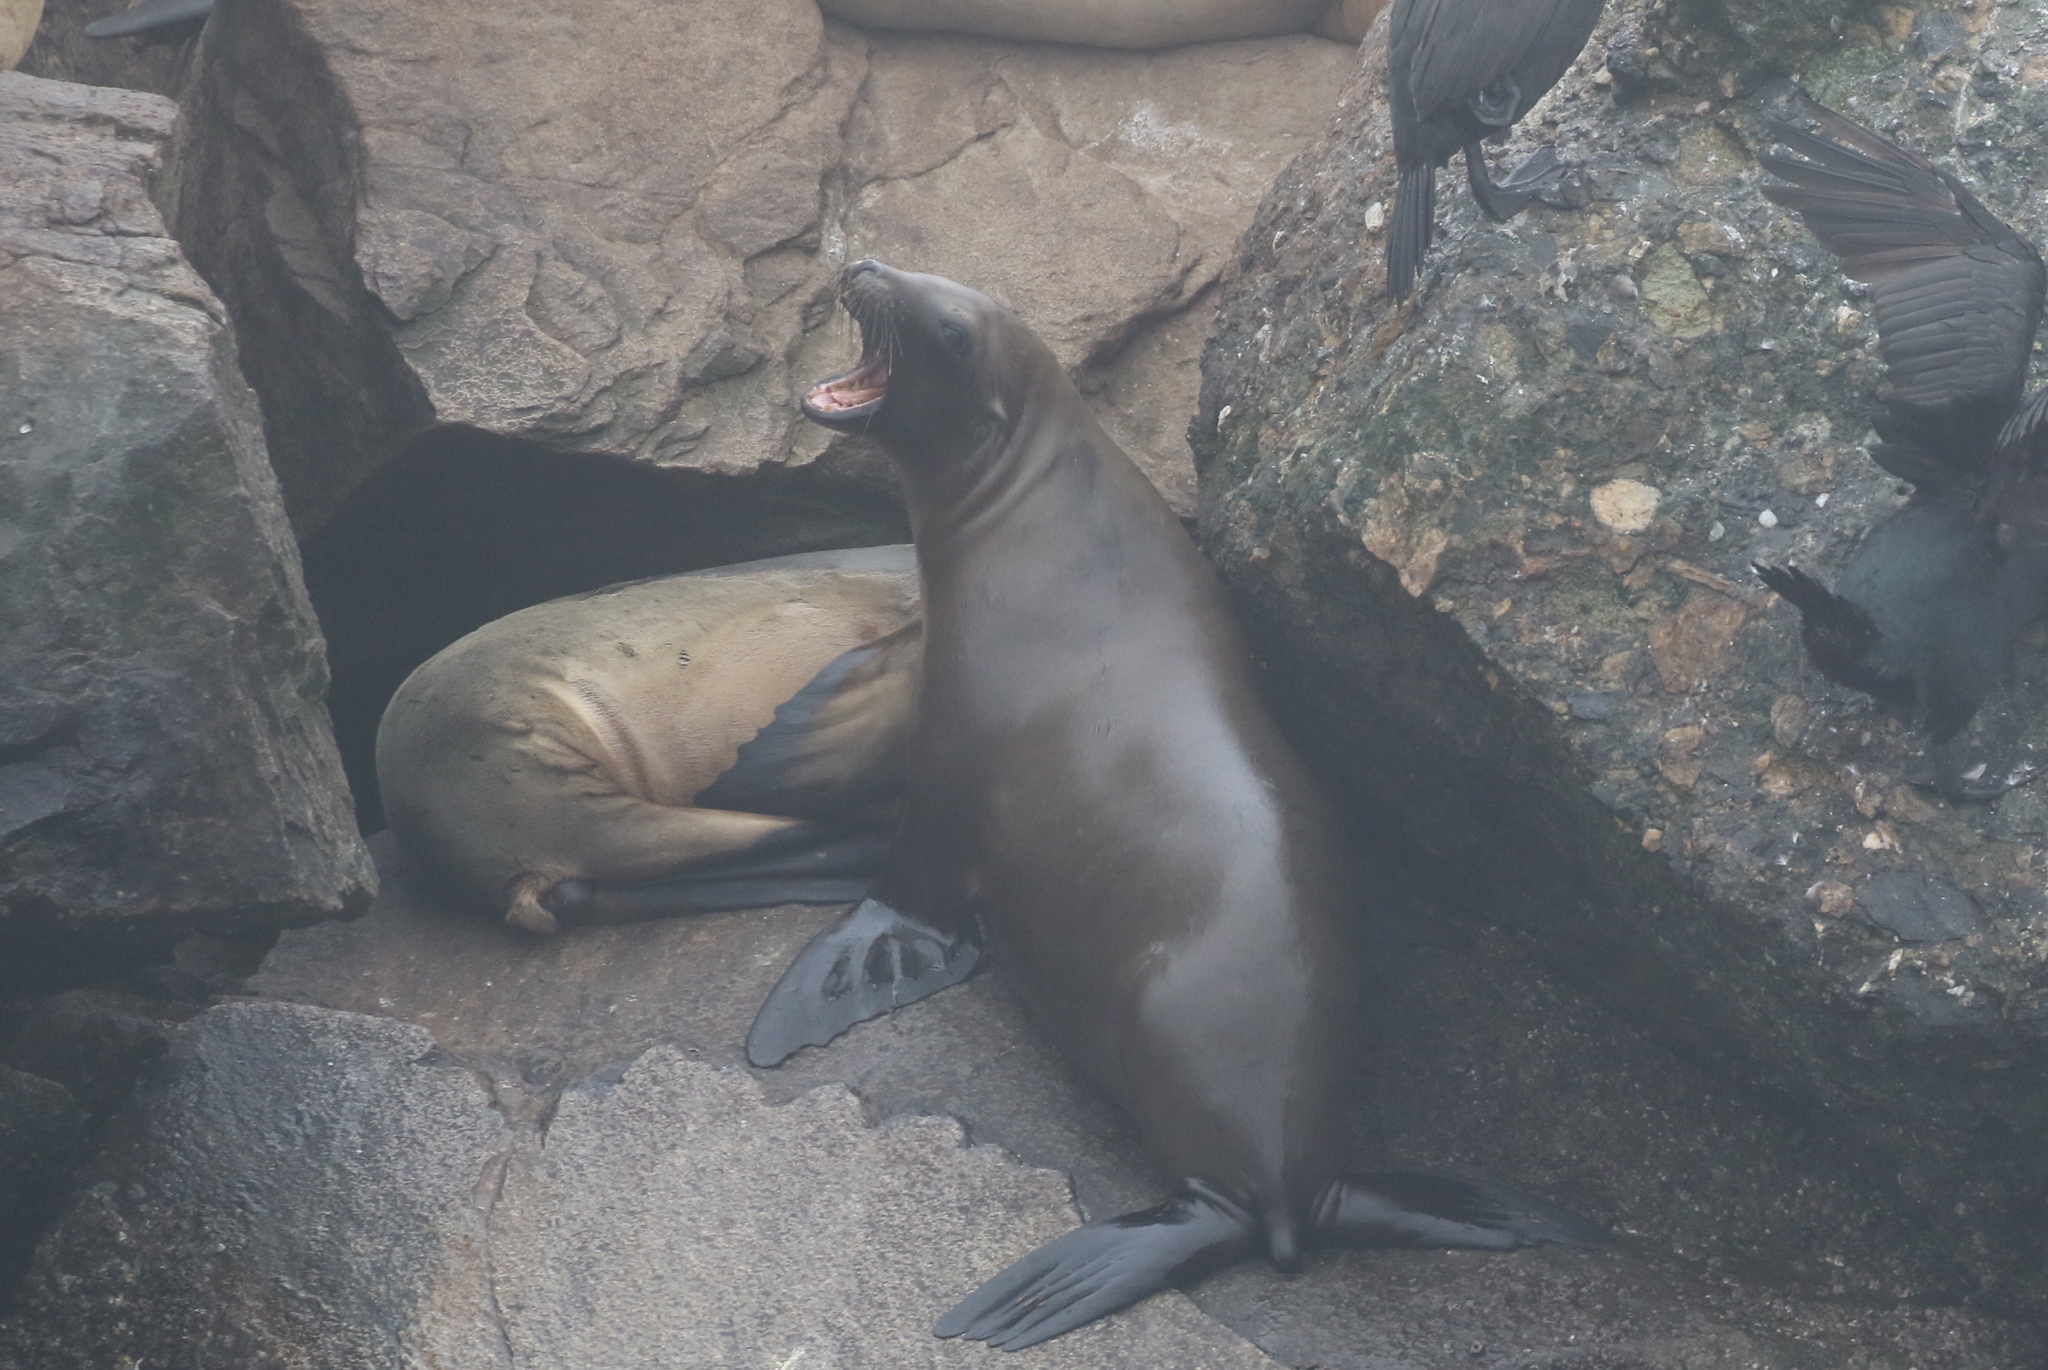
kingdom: Animalia
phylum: Chordata
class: Mammalia
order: Carnivora
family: Otariidae
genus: Zalophus
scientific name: Zalophus californianus
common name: California sea lion
